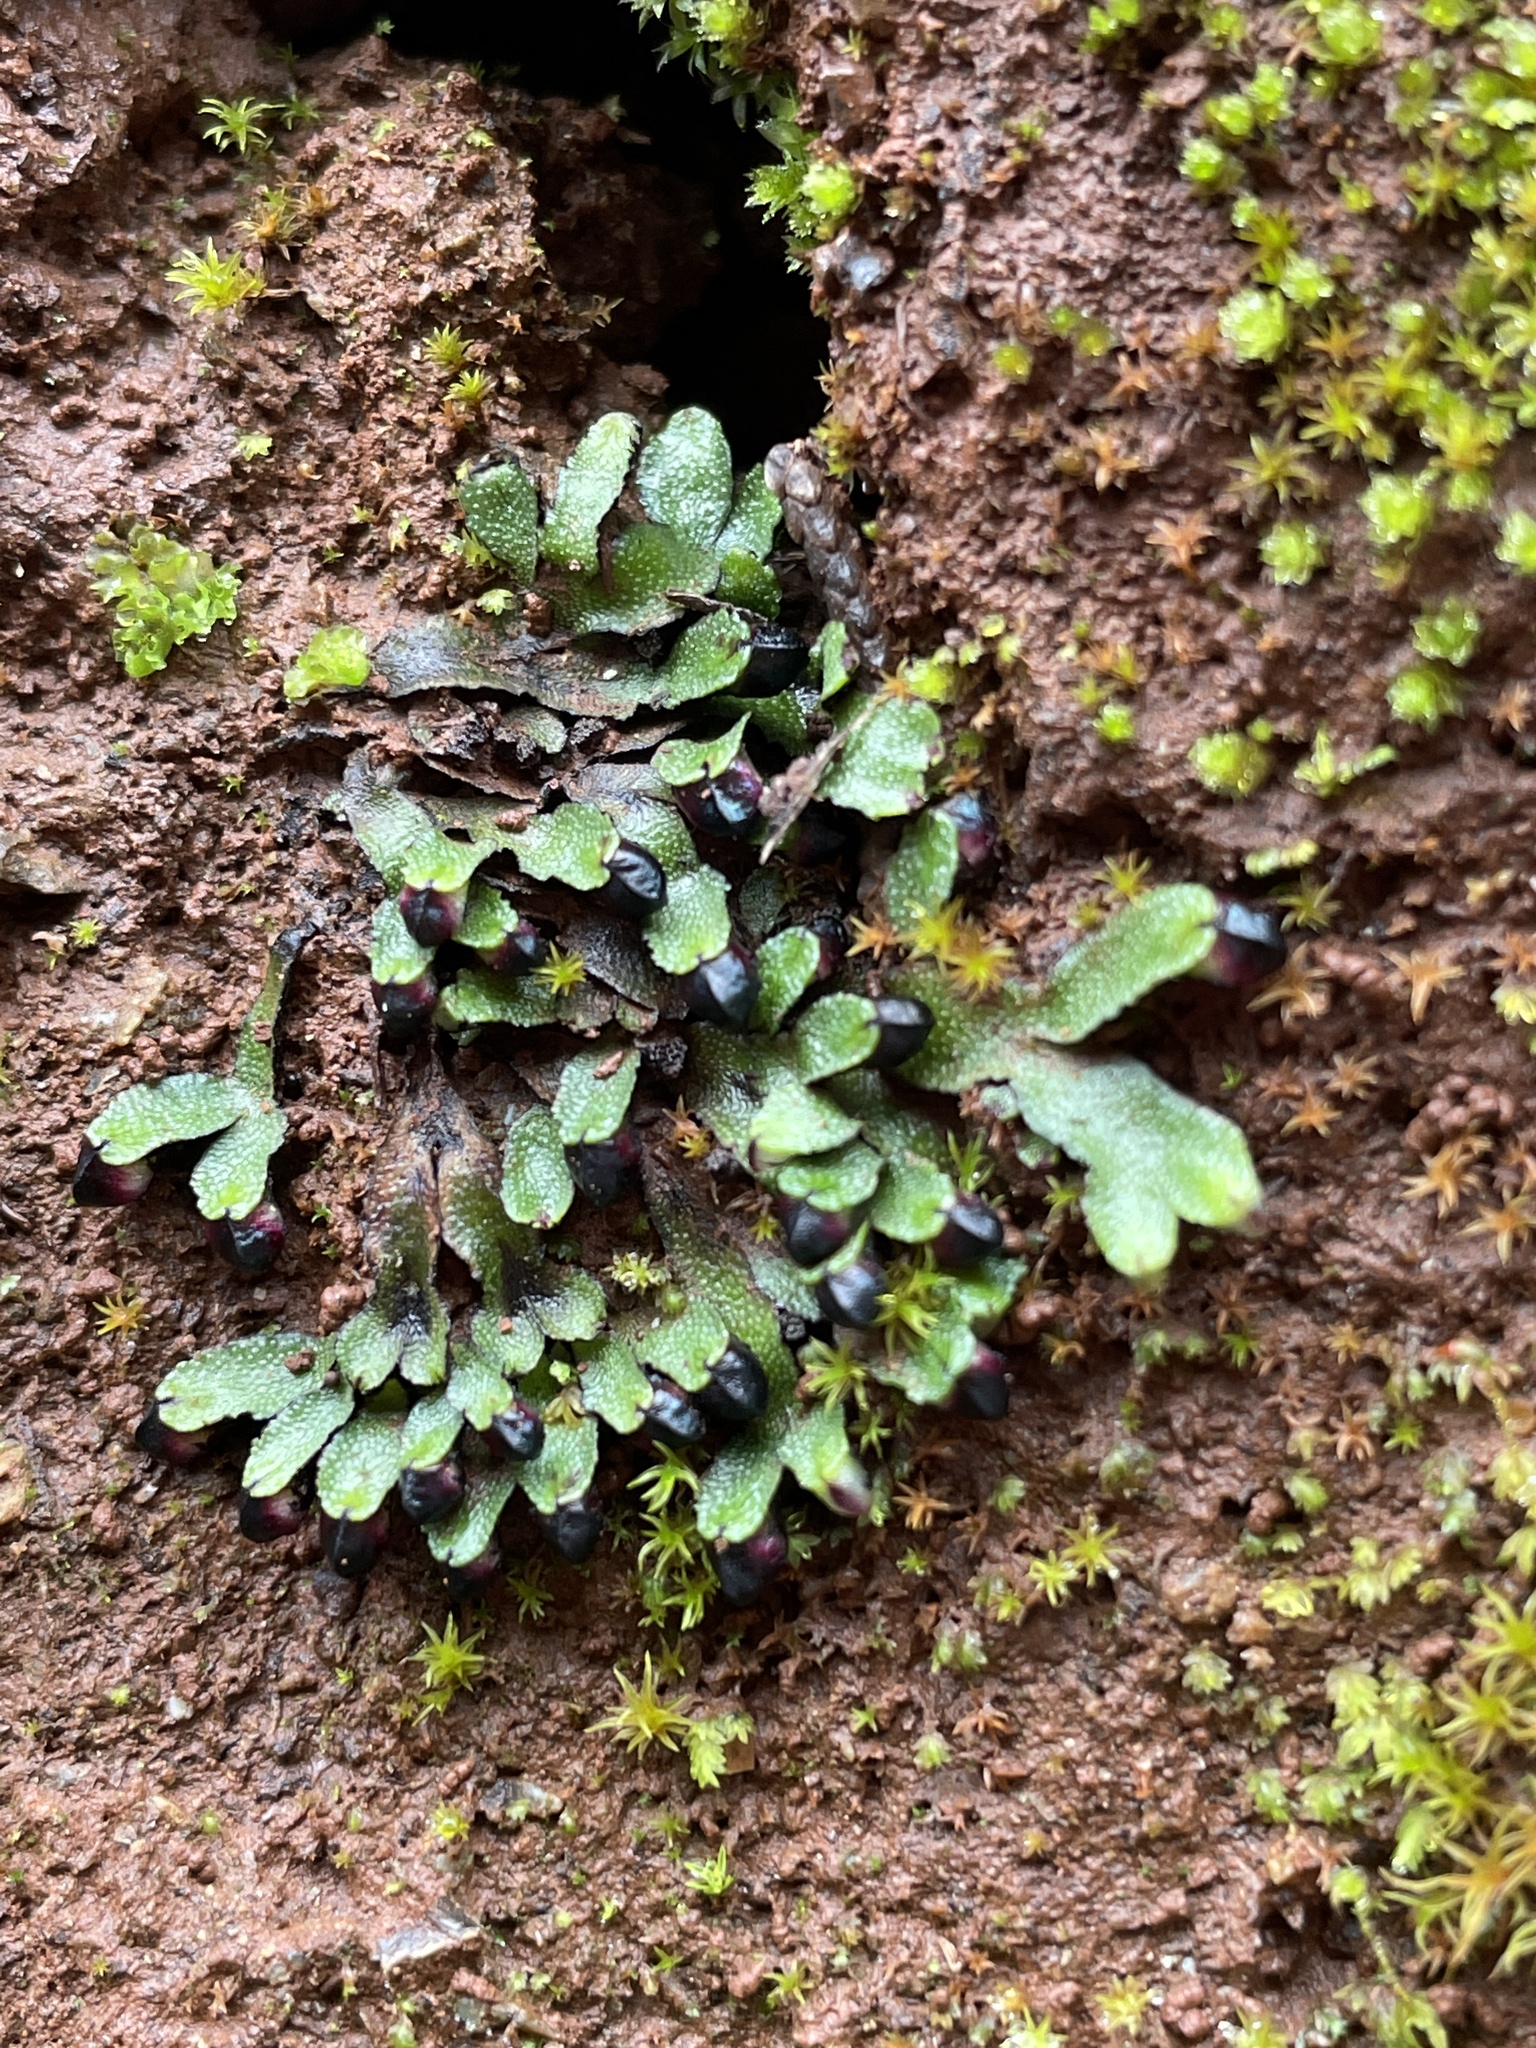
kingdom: Plantae
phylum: Marchantiophyta
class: Marchantiopsida
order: Marchantiales
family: Targioniaceae
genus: Targionia
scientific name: Targionia hypophylla
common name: Orobus-seed liverwort
